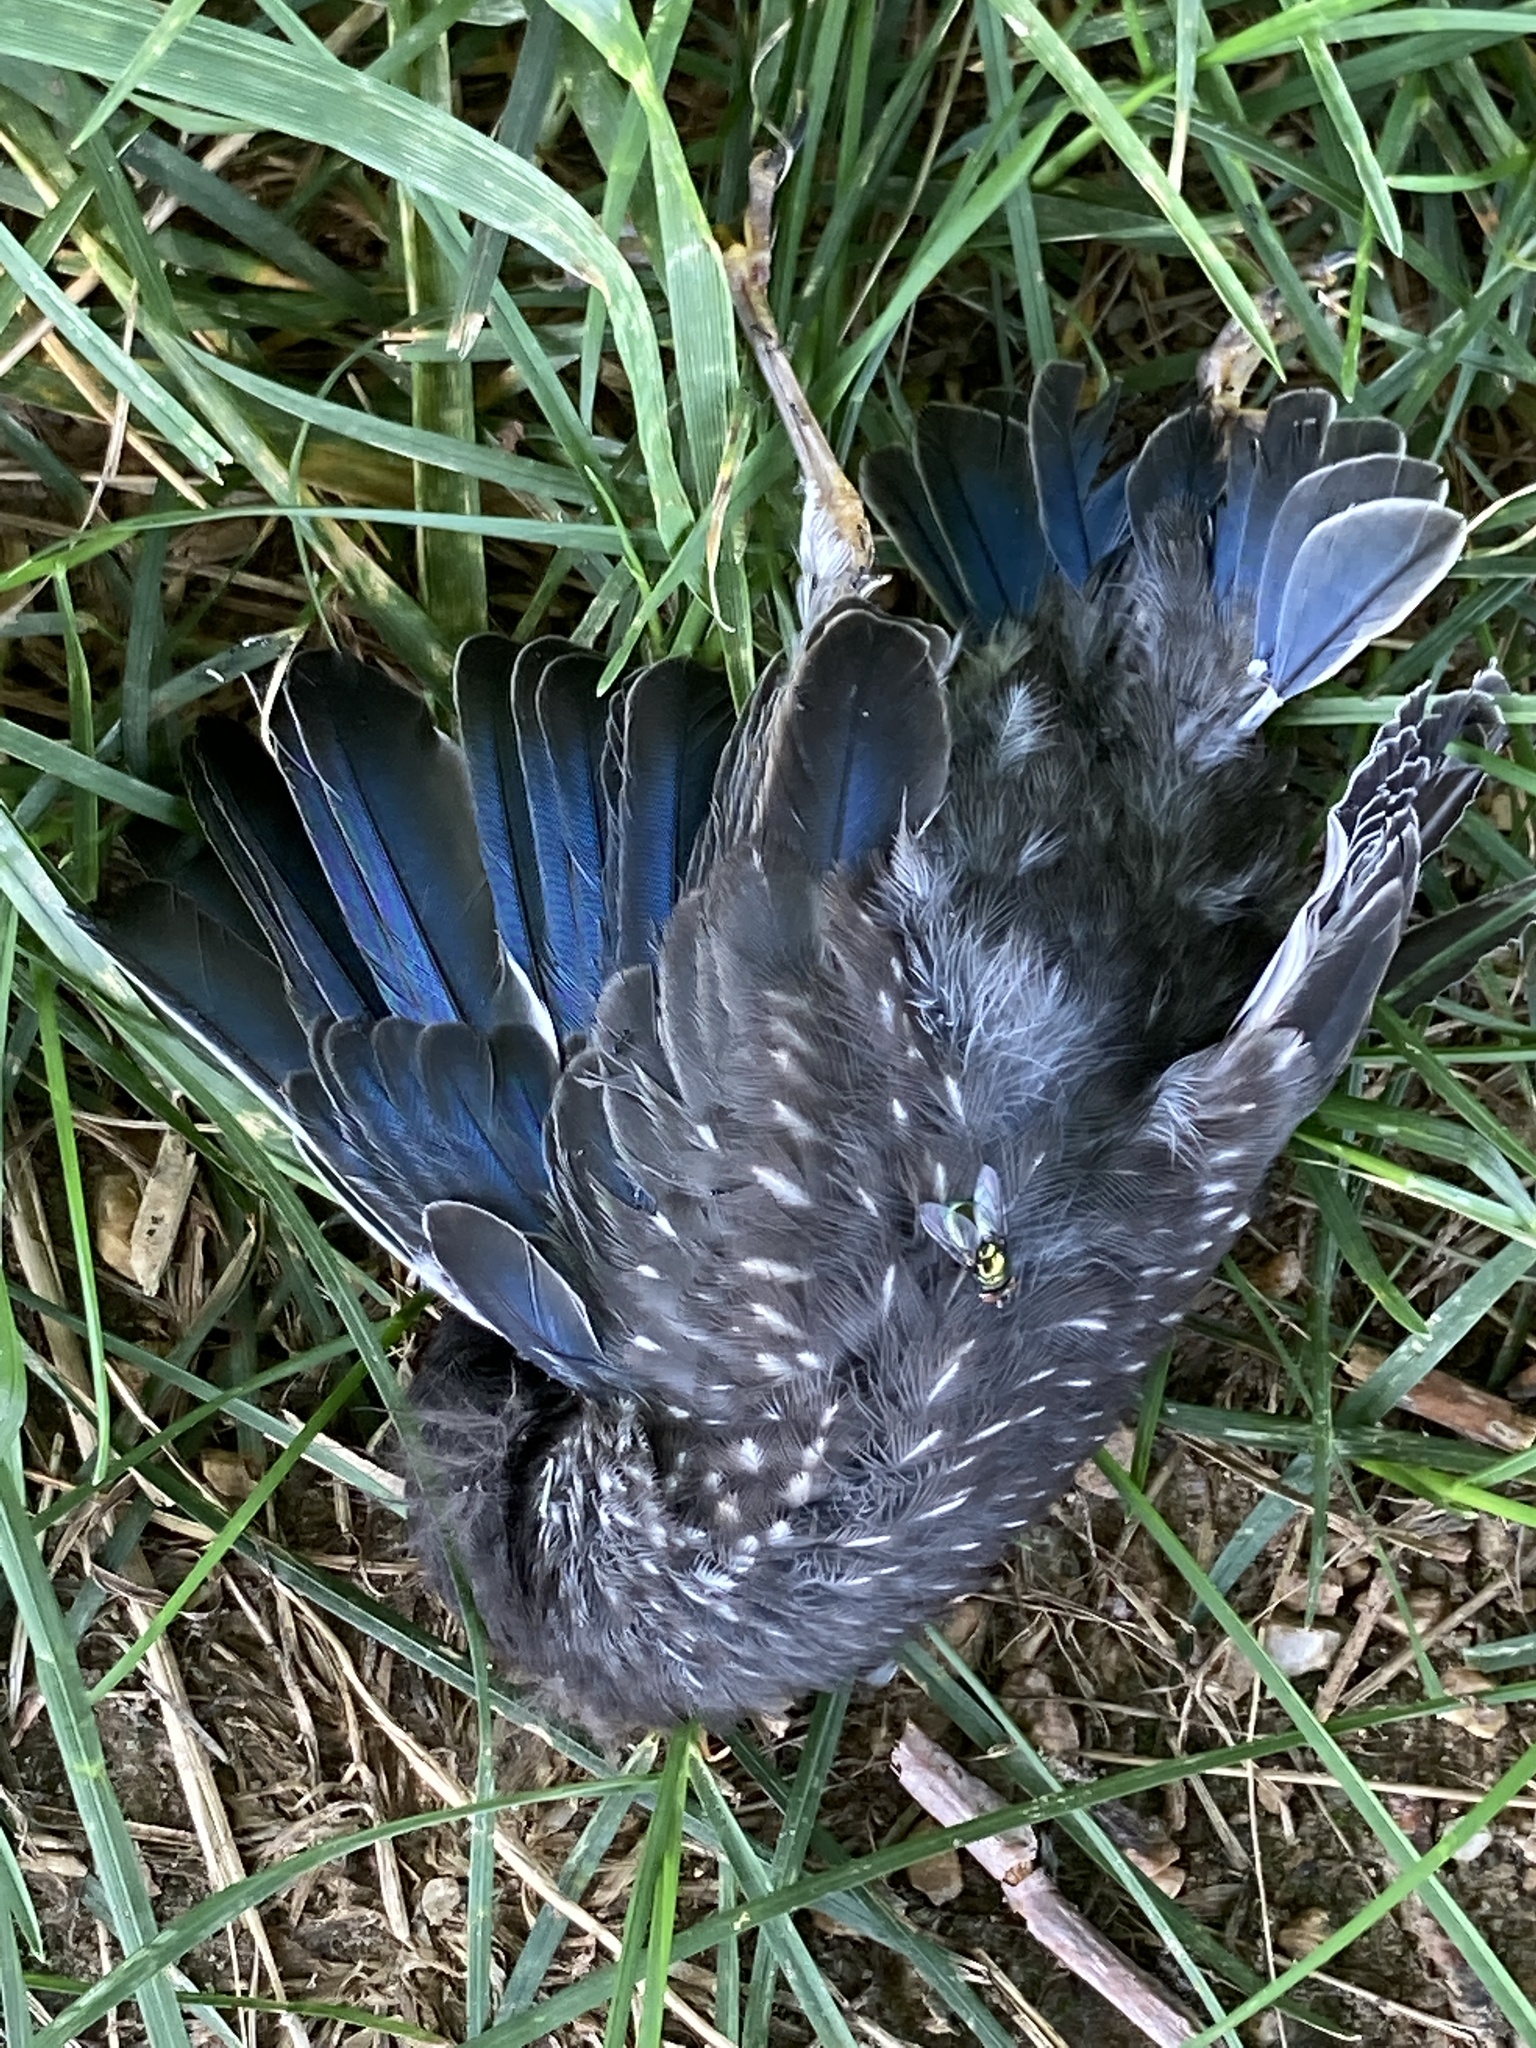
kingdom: Animalia
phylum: Chordata
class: Aves
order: Passeriformes
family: Turdidae
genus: Sialia
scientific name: Sialia sialis
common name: Eastern bluebird
